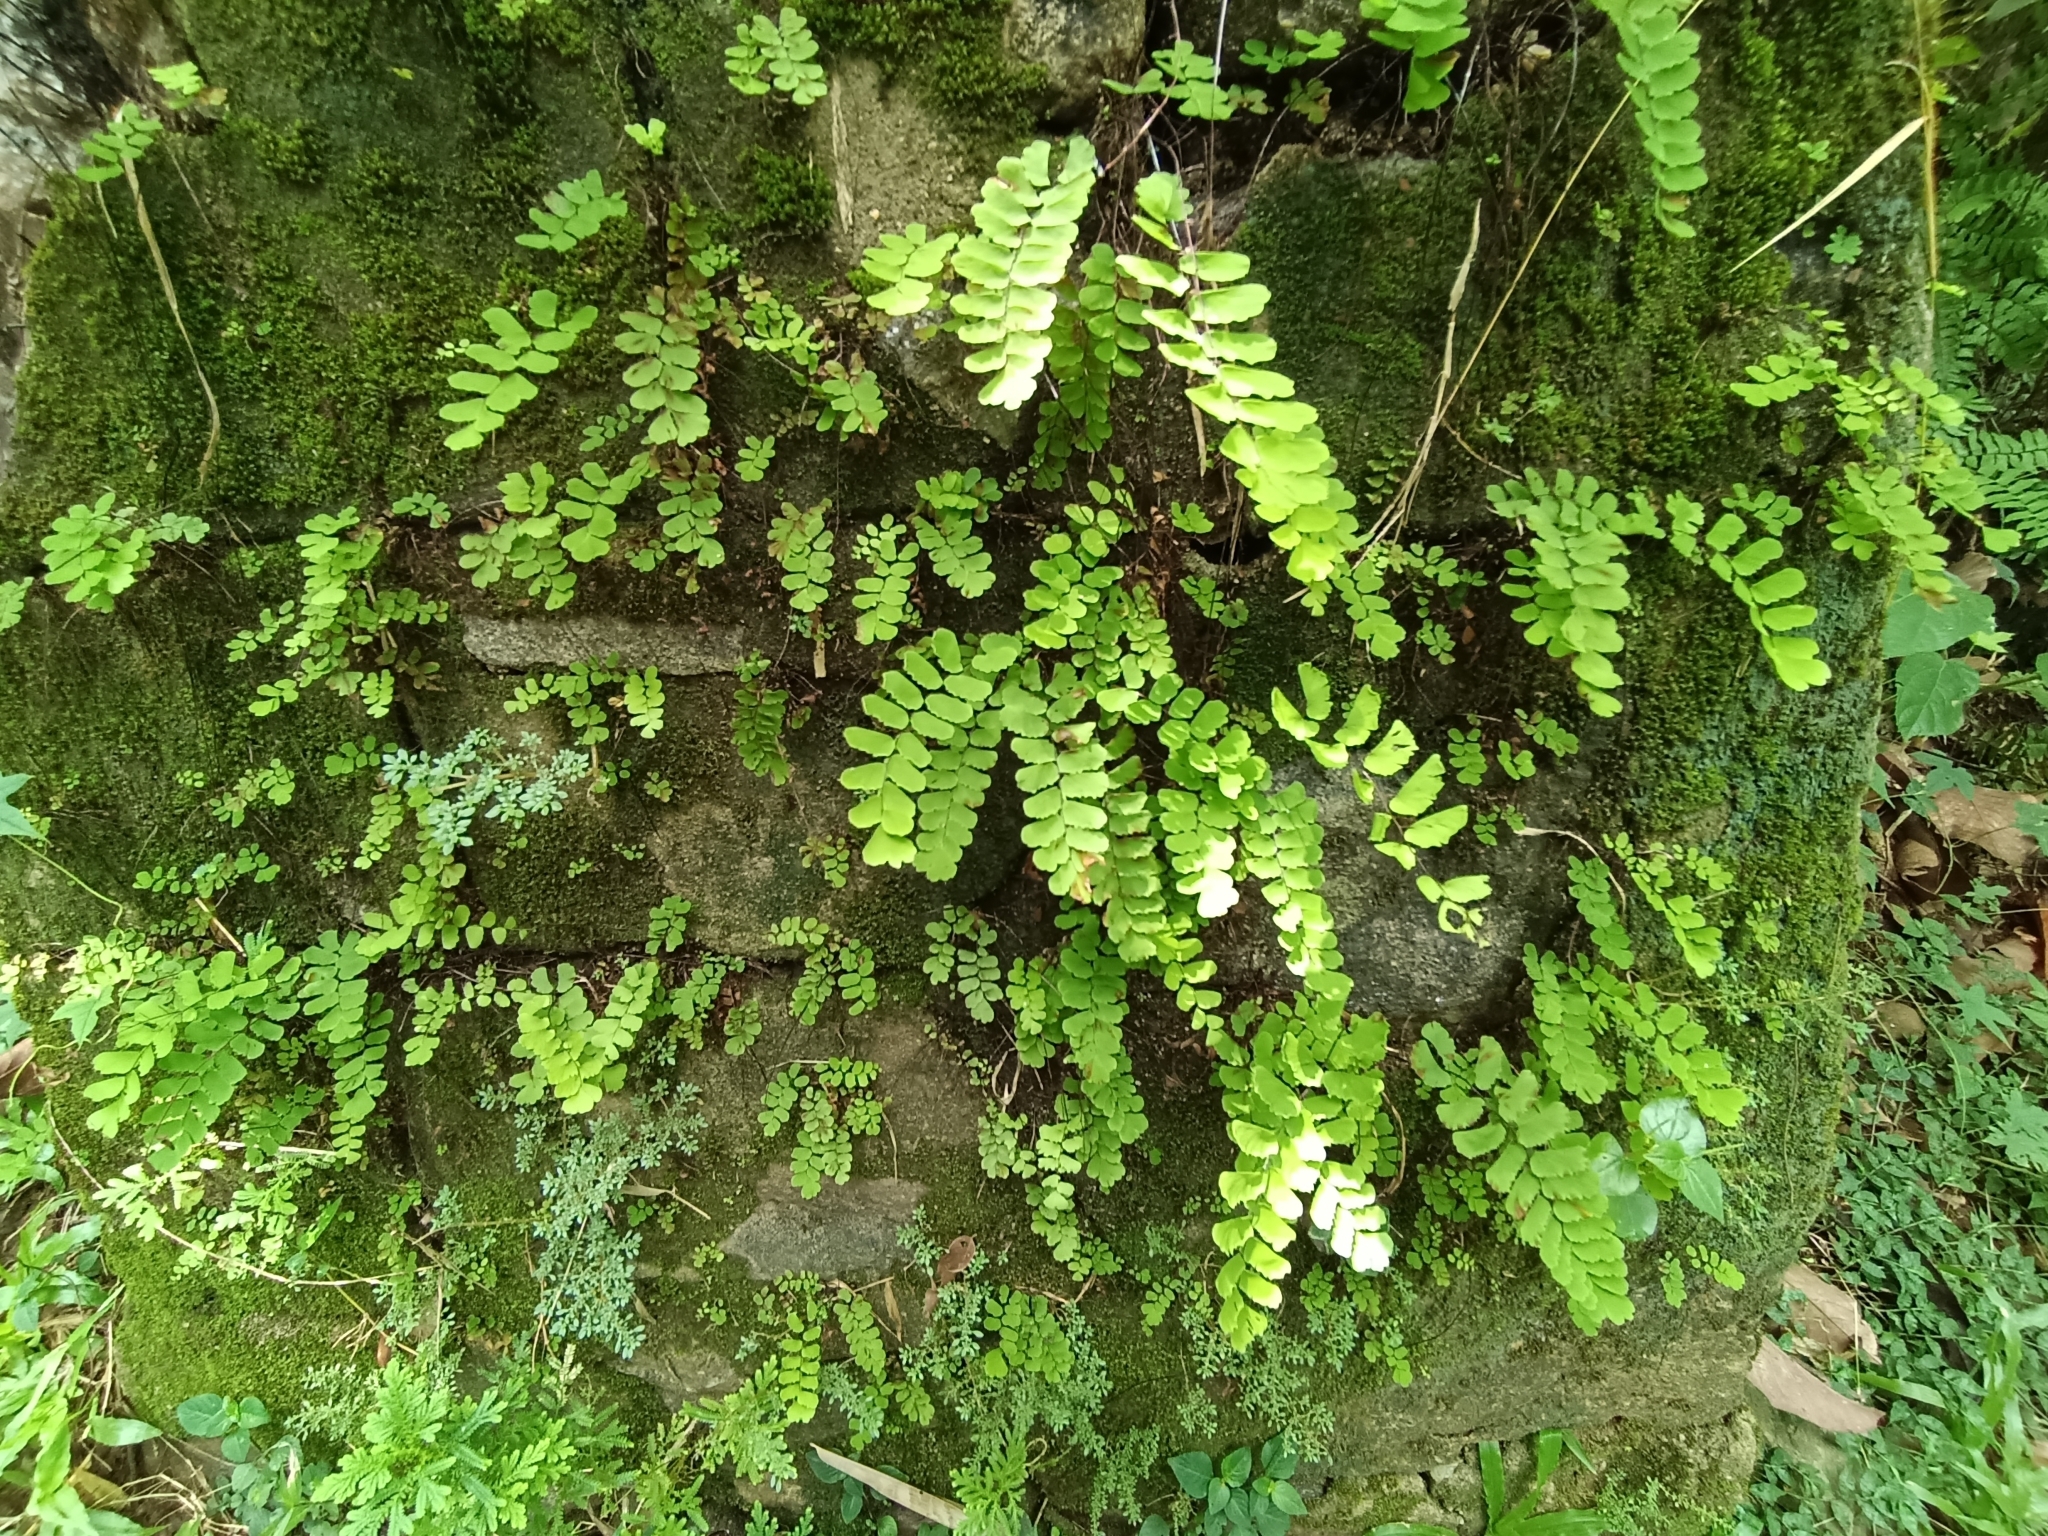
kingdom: Plantae
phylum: Tracheophyta
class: Polypodiopsida
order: Polypodiales
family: Pteridaceae
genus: Adiantum
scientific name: Adiantum philippense
